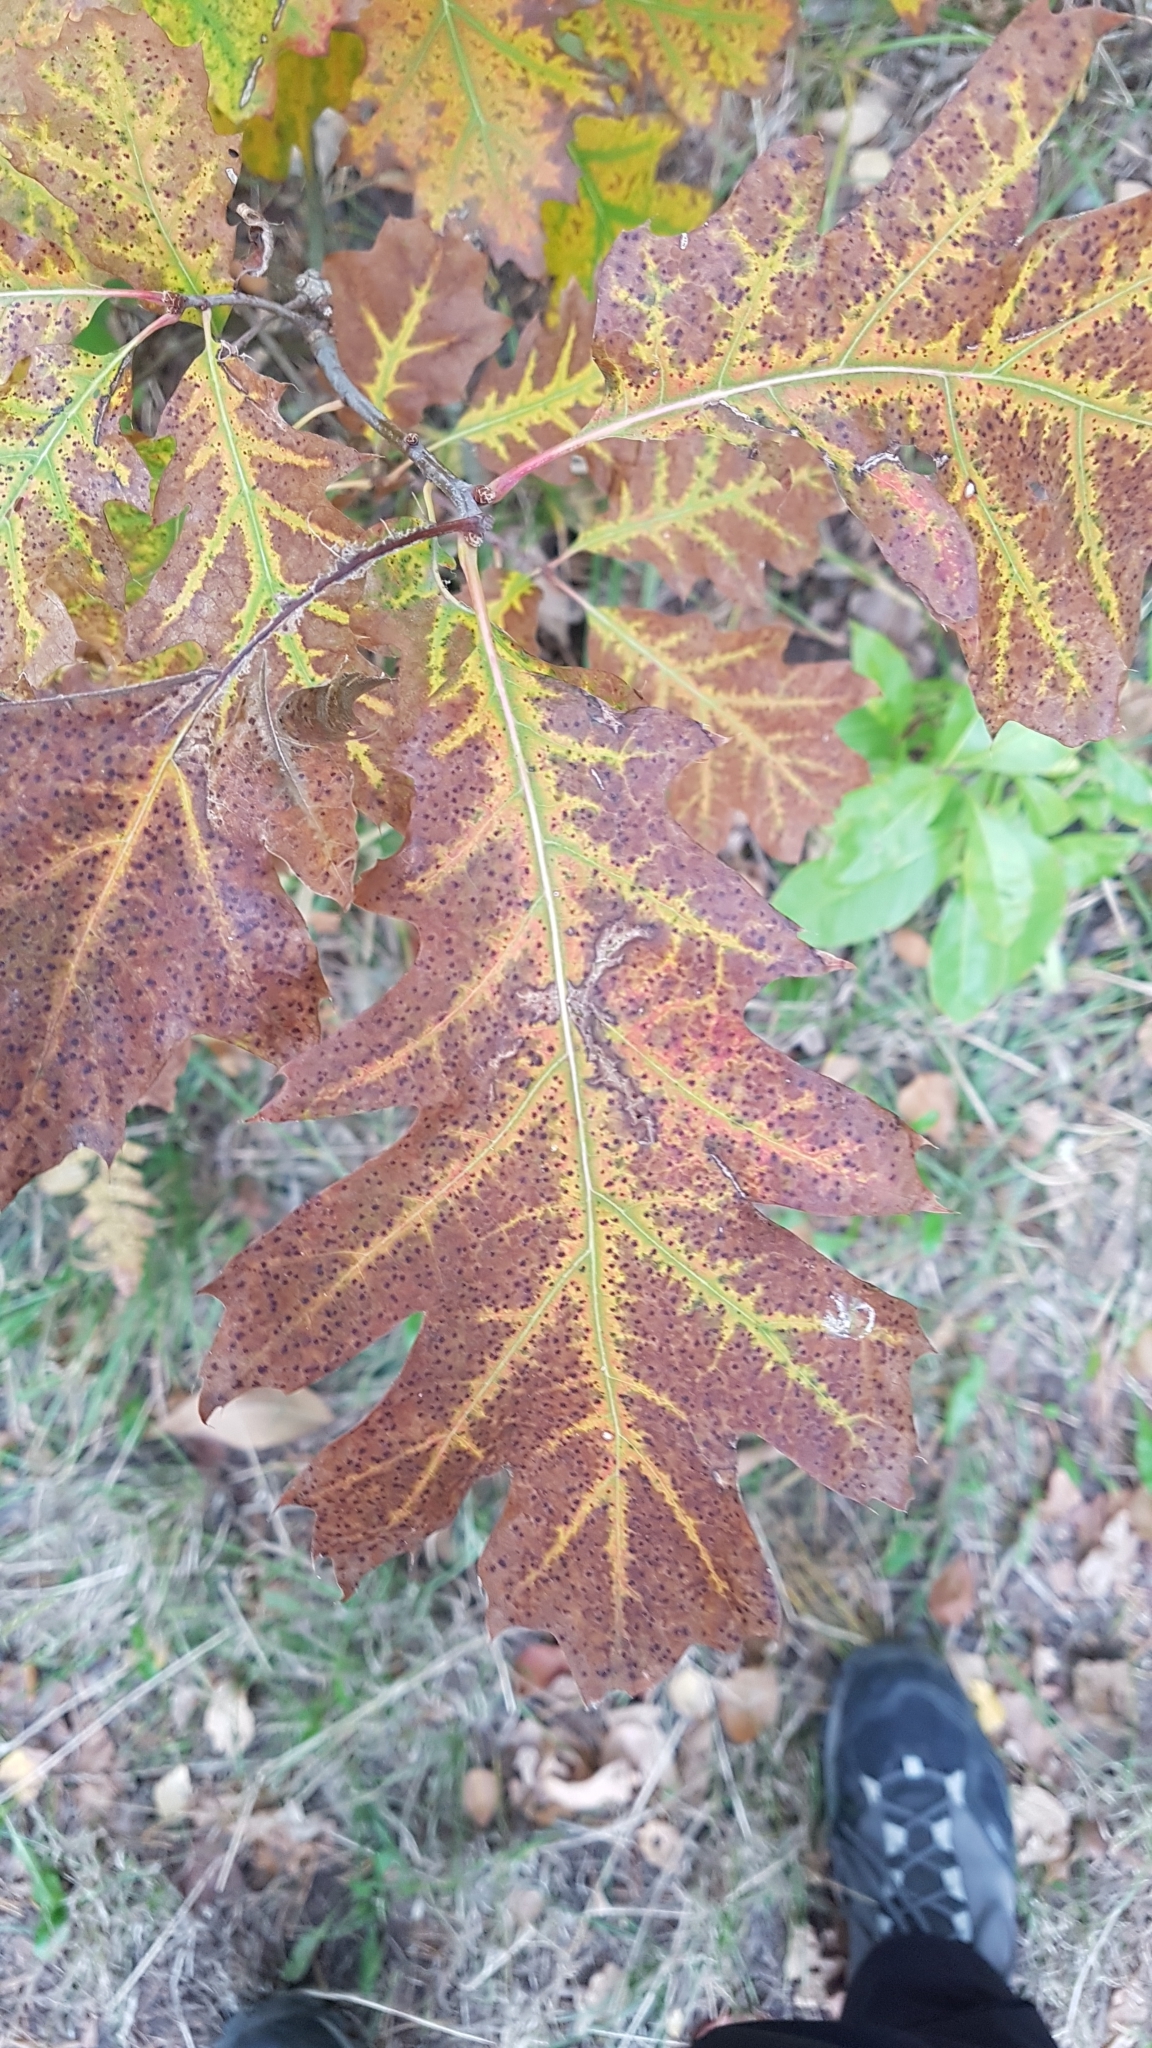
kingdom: Plantae
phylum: Tracheophyta
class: Magnoliopsida
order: Fagales
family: Fagaceae
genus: Quercus
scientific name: Quercus rubra
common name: Red oak
